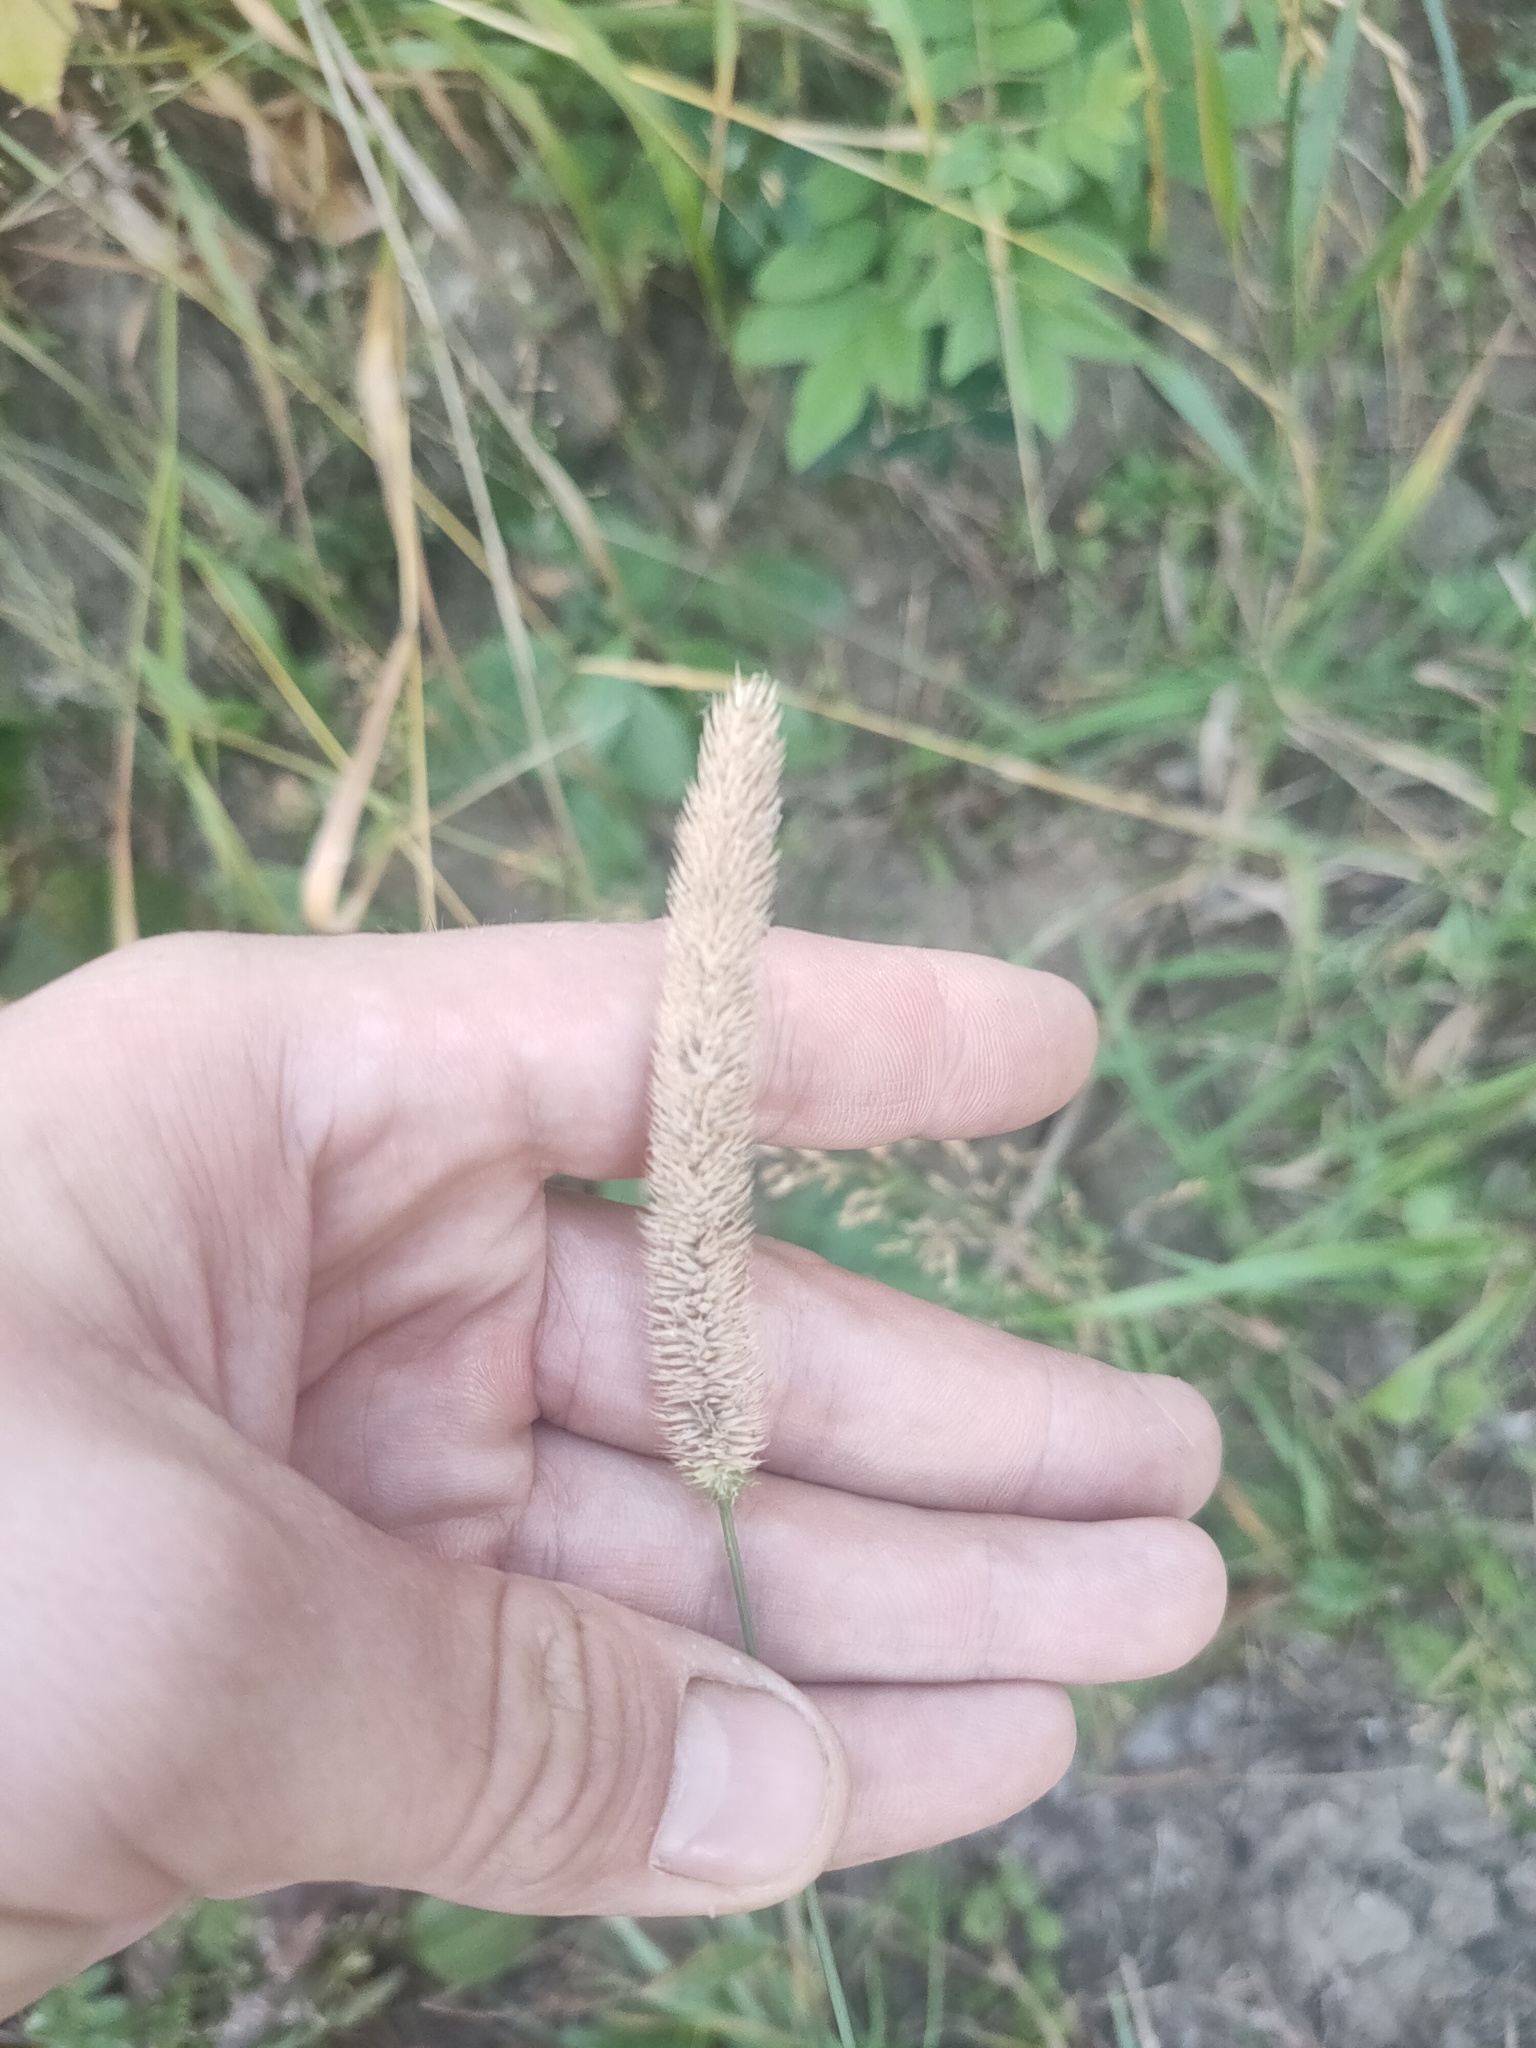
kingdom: Plantae
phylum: Tracheophyta
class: Liliopsida
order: Poales
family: Poaceae
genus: Phleum
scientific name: Phleum pratense
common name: Timothy grass
